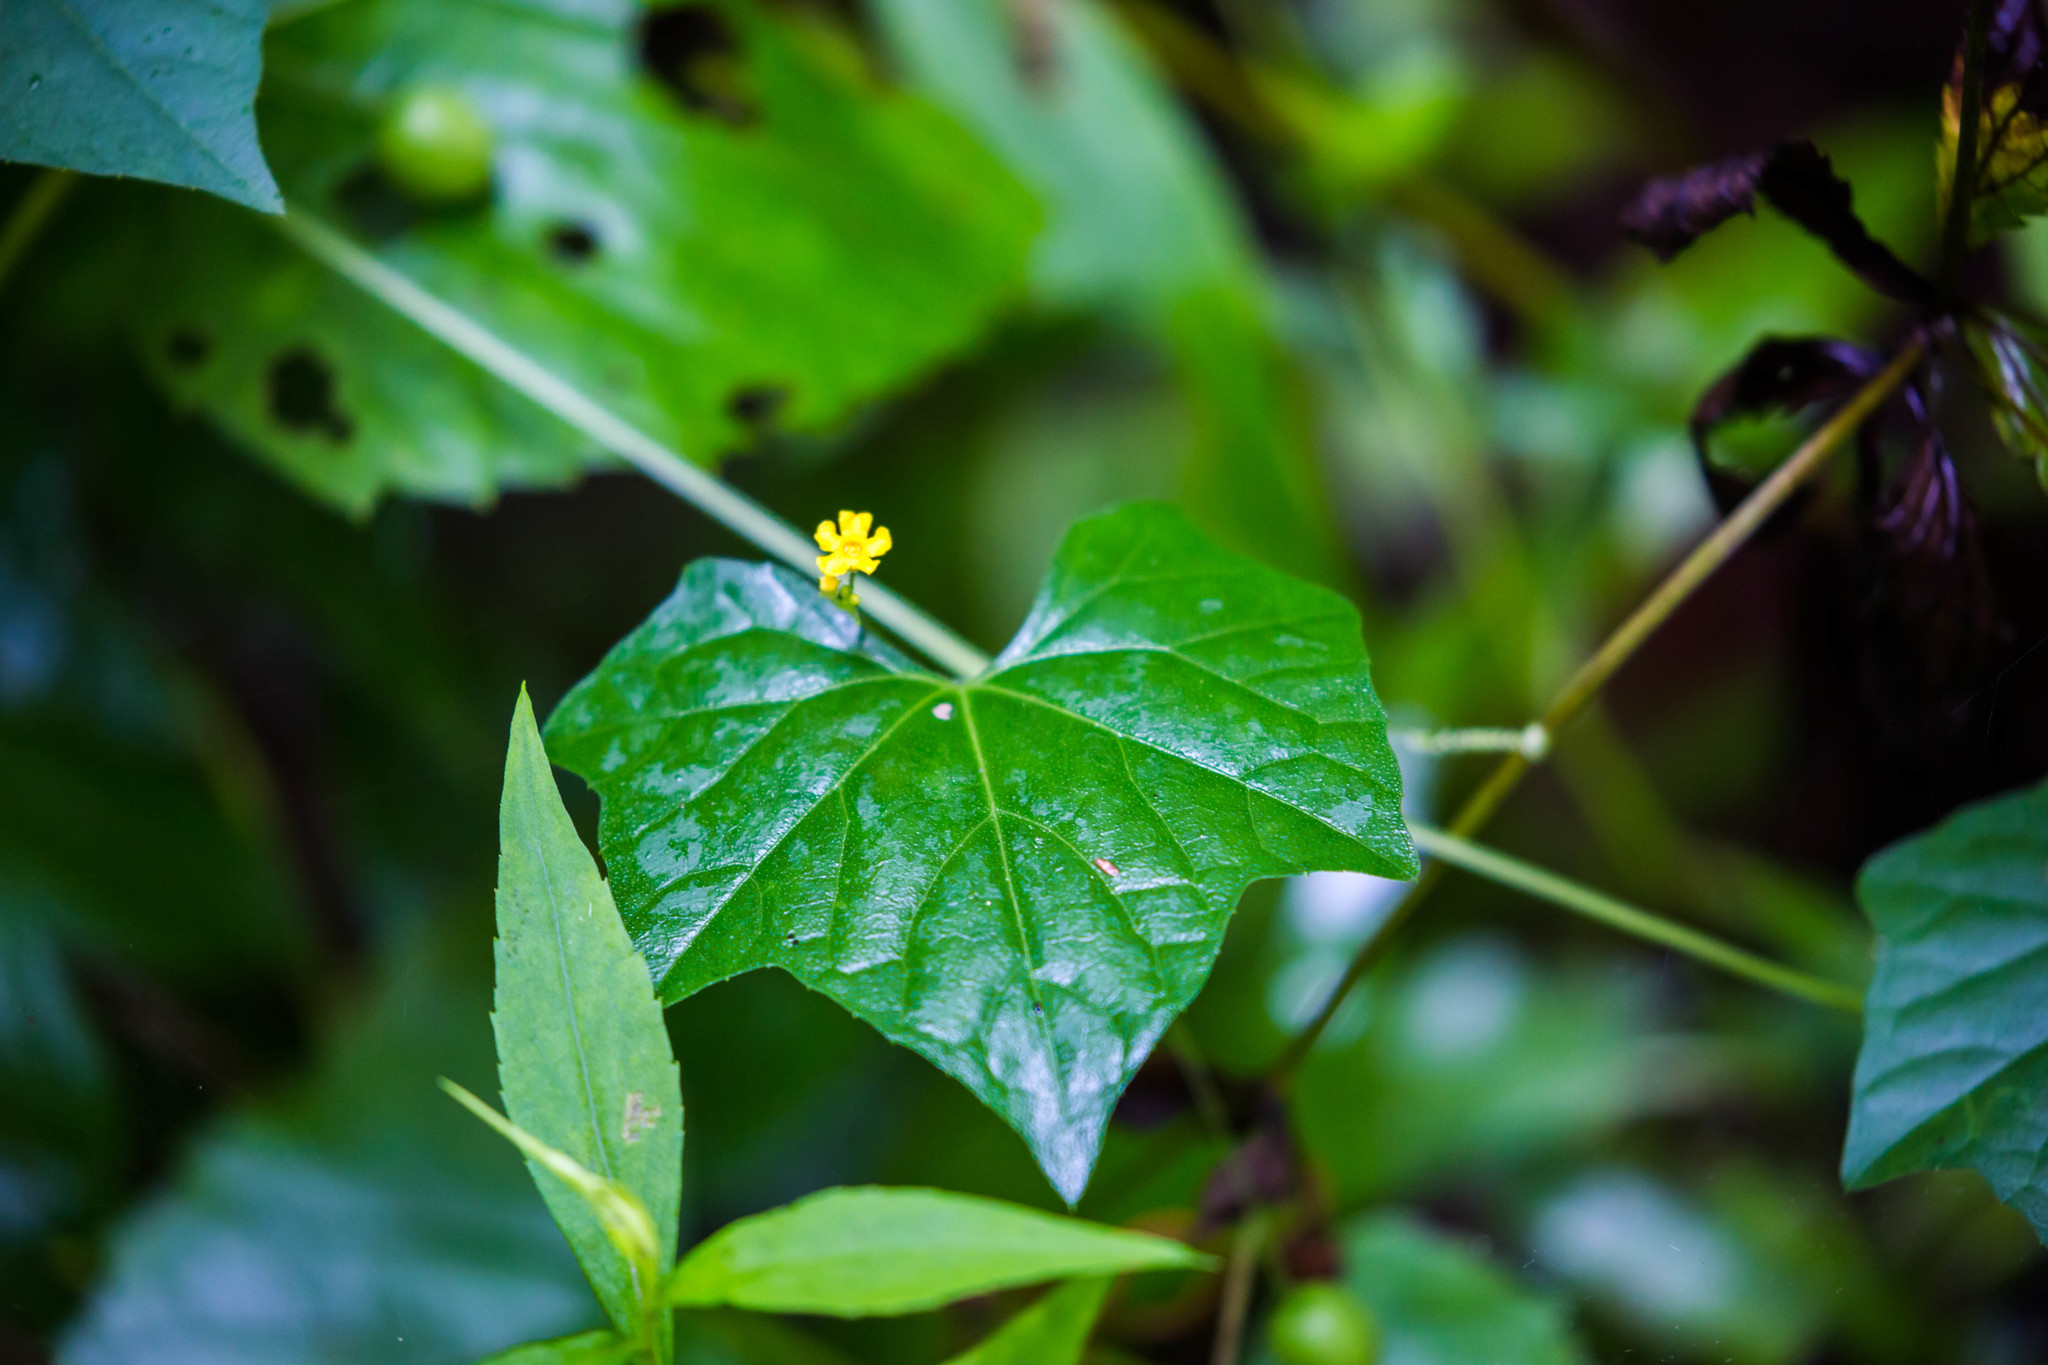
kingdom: Plantae
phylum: Tracheophyta
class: Magnoliopsida
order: Cucurbitales
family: Cucurbitaceae
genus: Melothria
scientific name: Melothria pendula
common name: Creeping-cucumber
